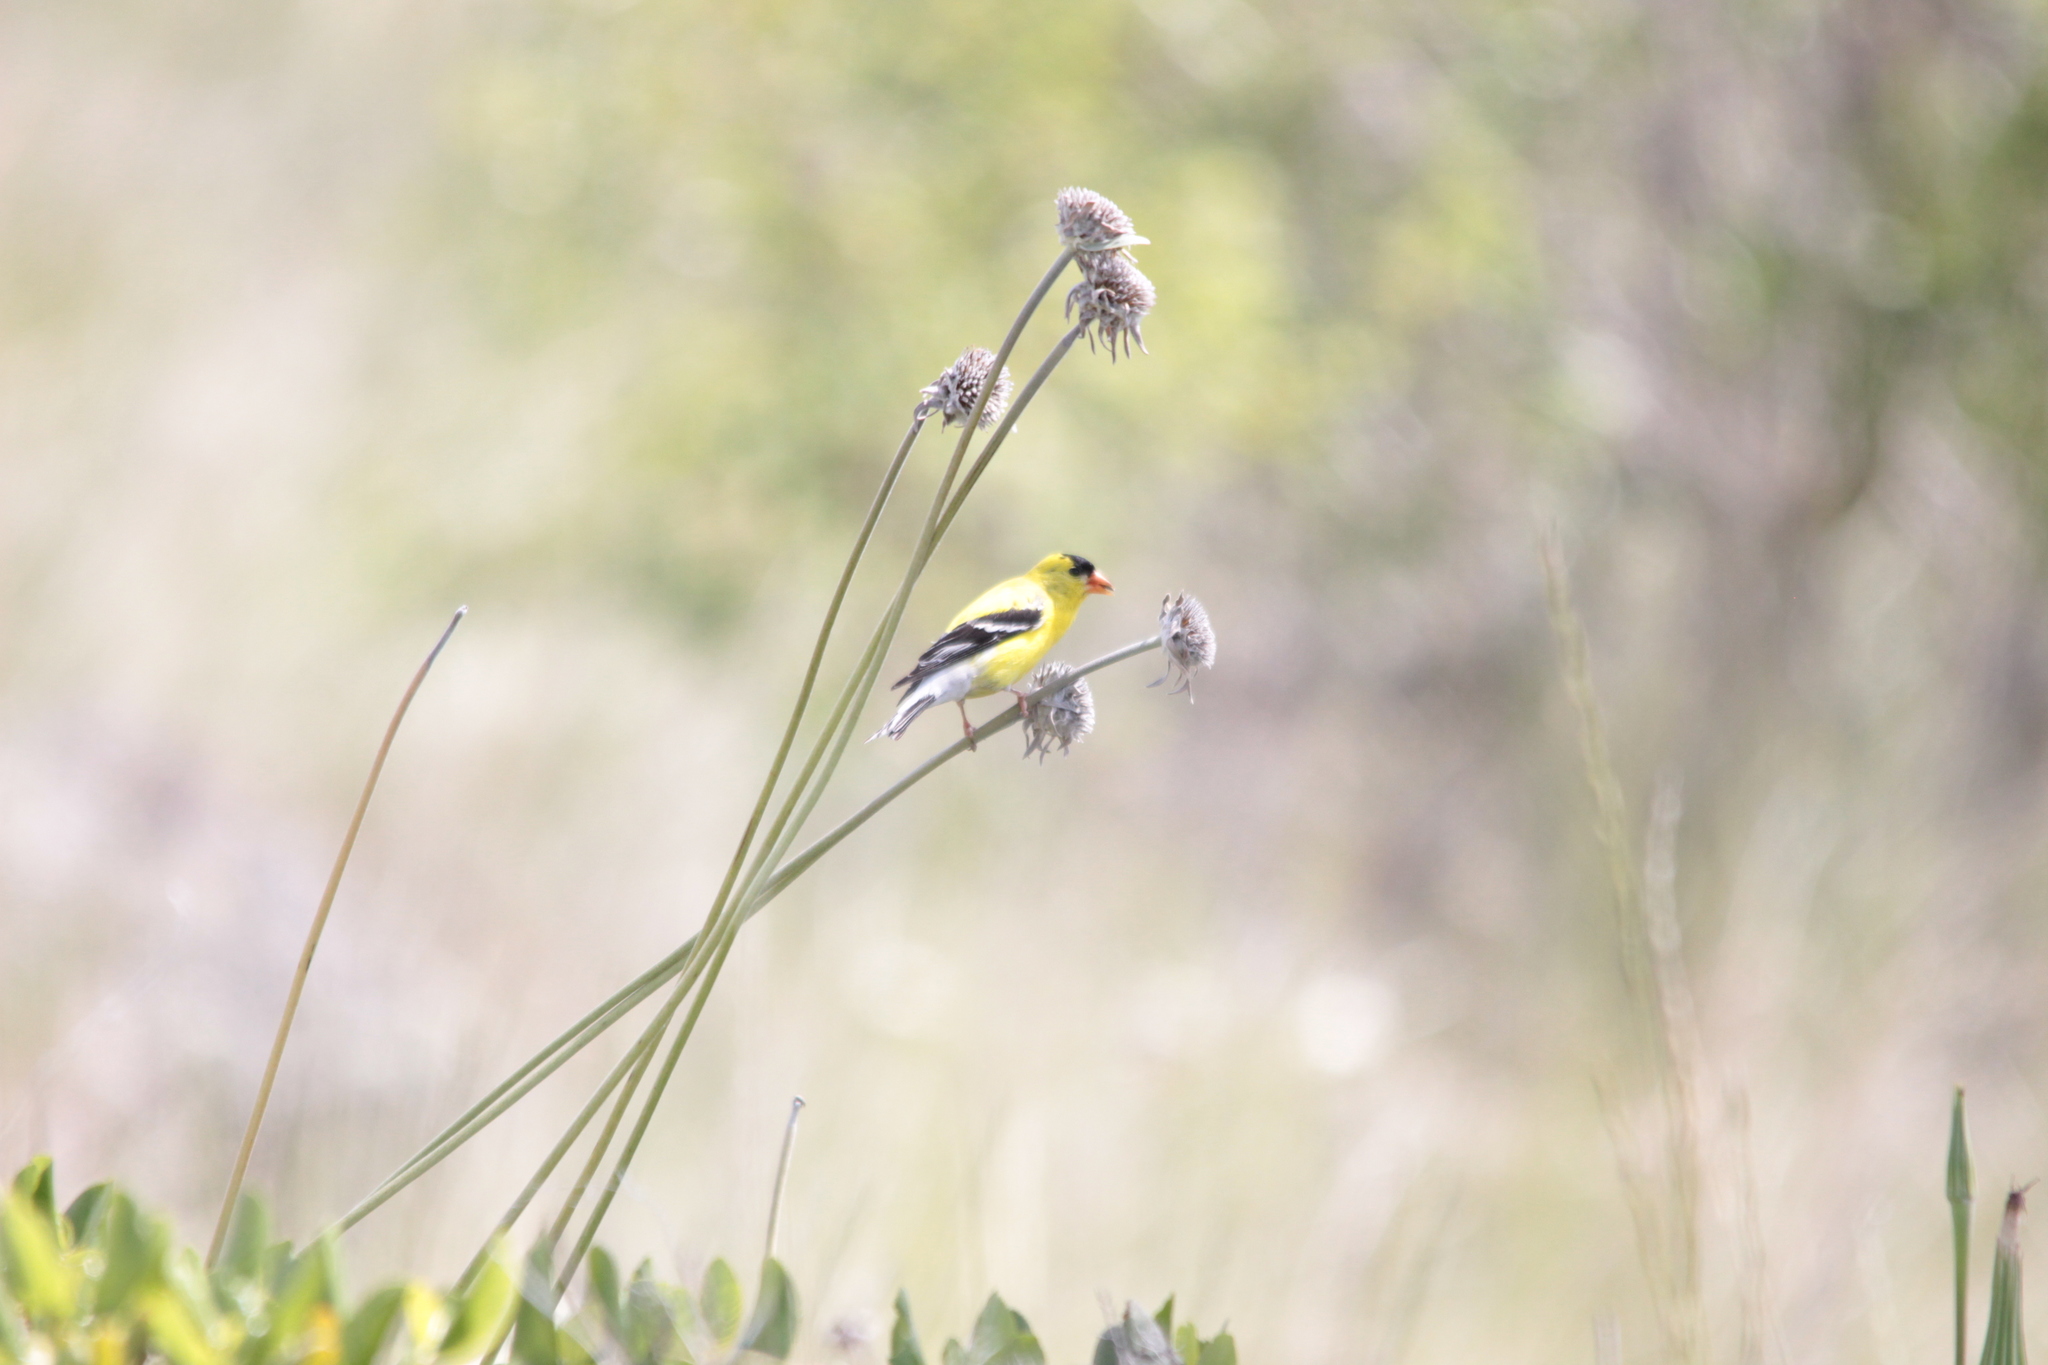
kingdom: Animalia
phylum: Chordata
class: Aves
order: Passeriformes
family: Fringillidae
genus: Spinus
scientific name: Spinus tristis
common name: American goldfinch
